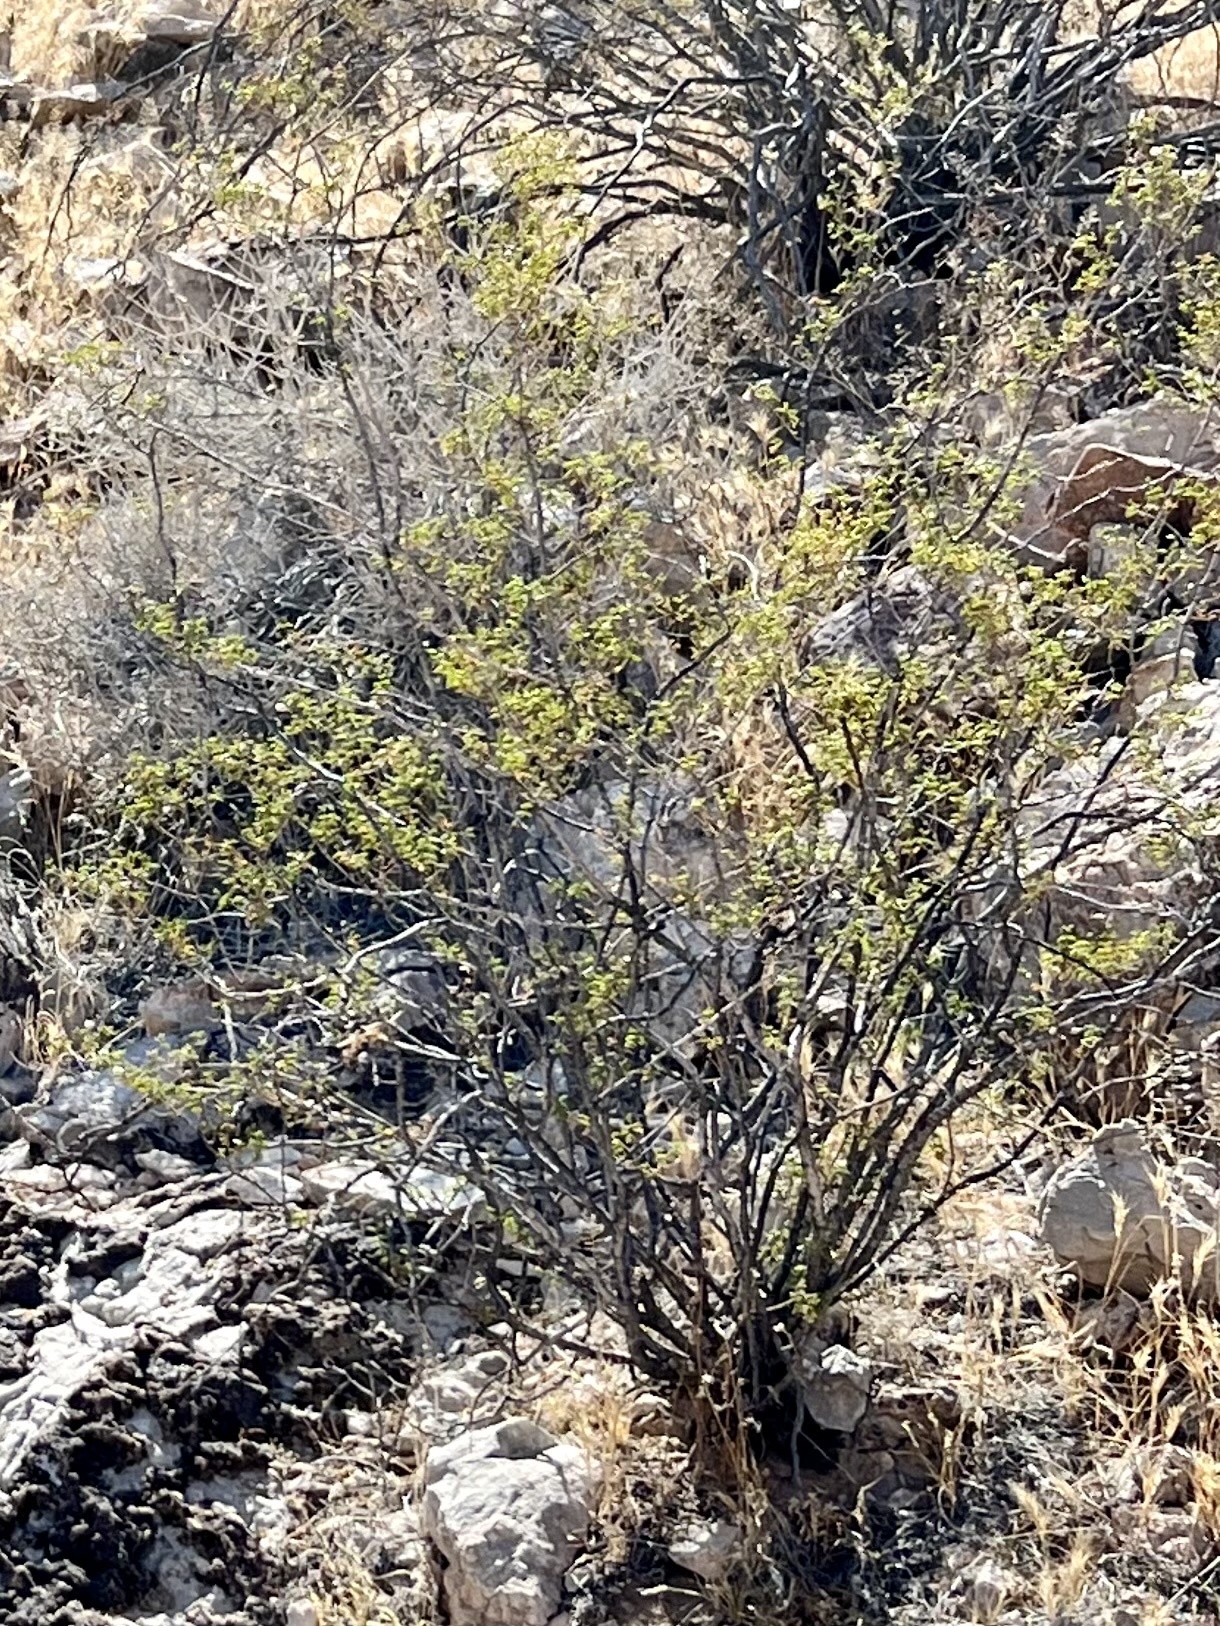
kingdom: Plantae
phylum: Tracheophyta
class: Magnoliopsida
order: Zygophyllales
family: Zygophyllaceae
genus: Larrea
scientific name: Larrea tridentata
